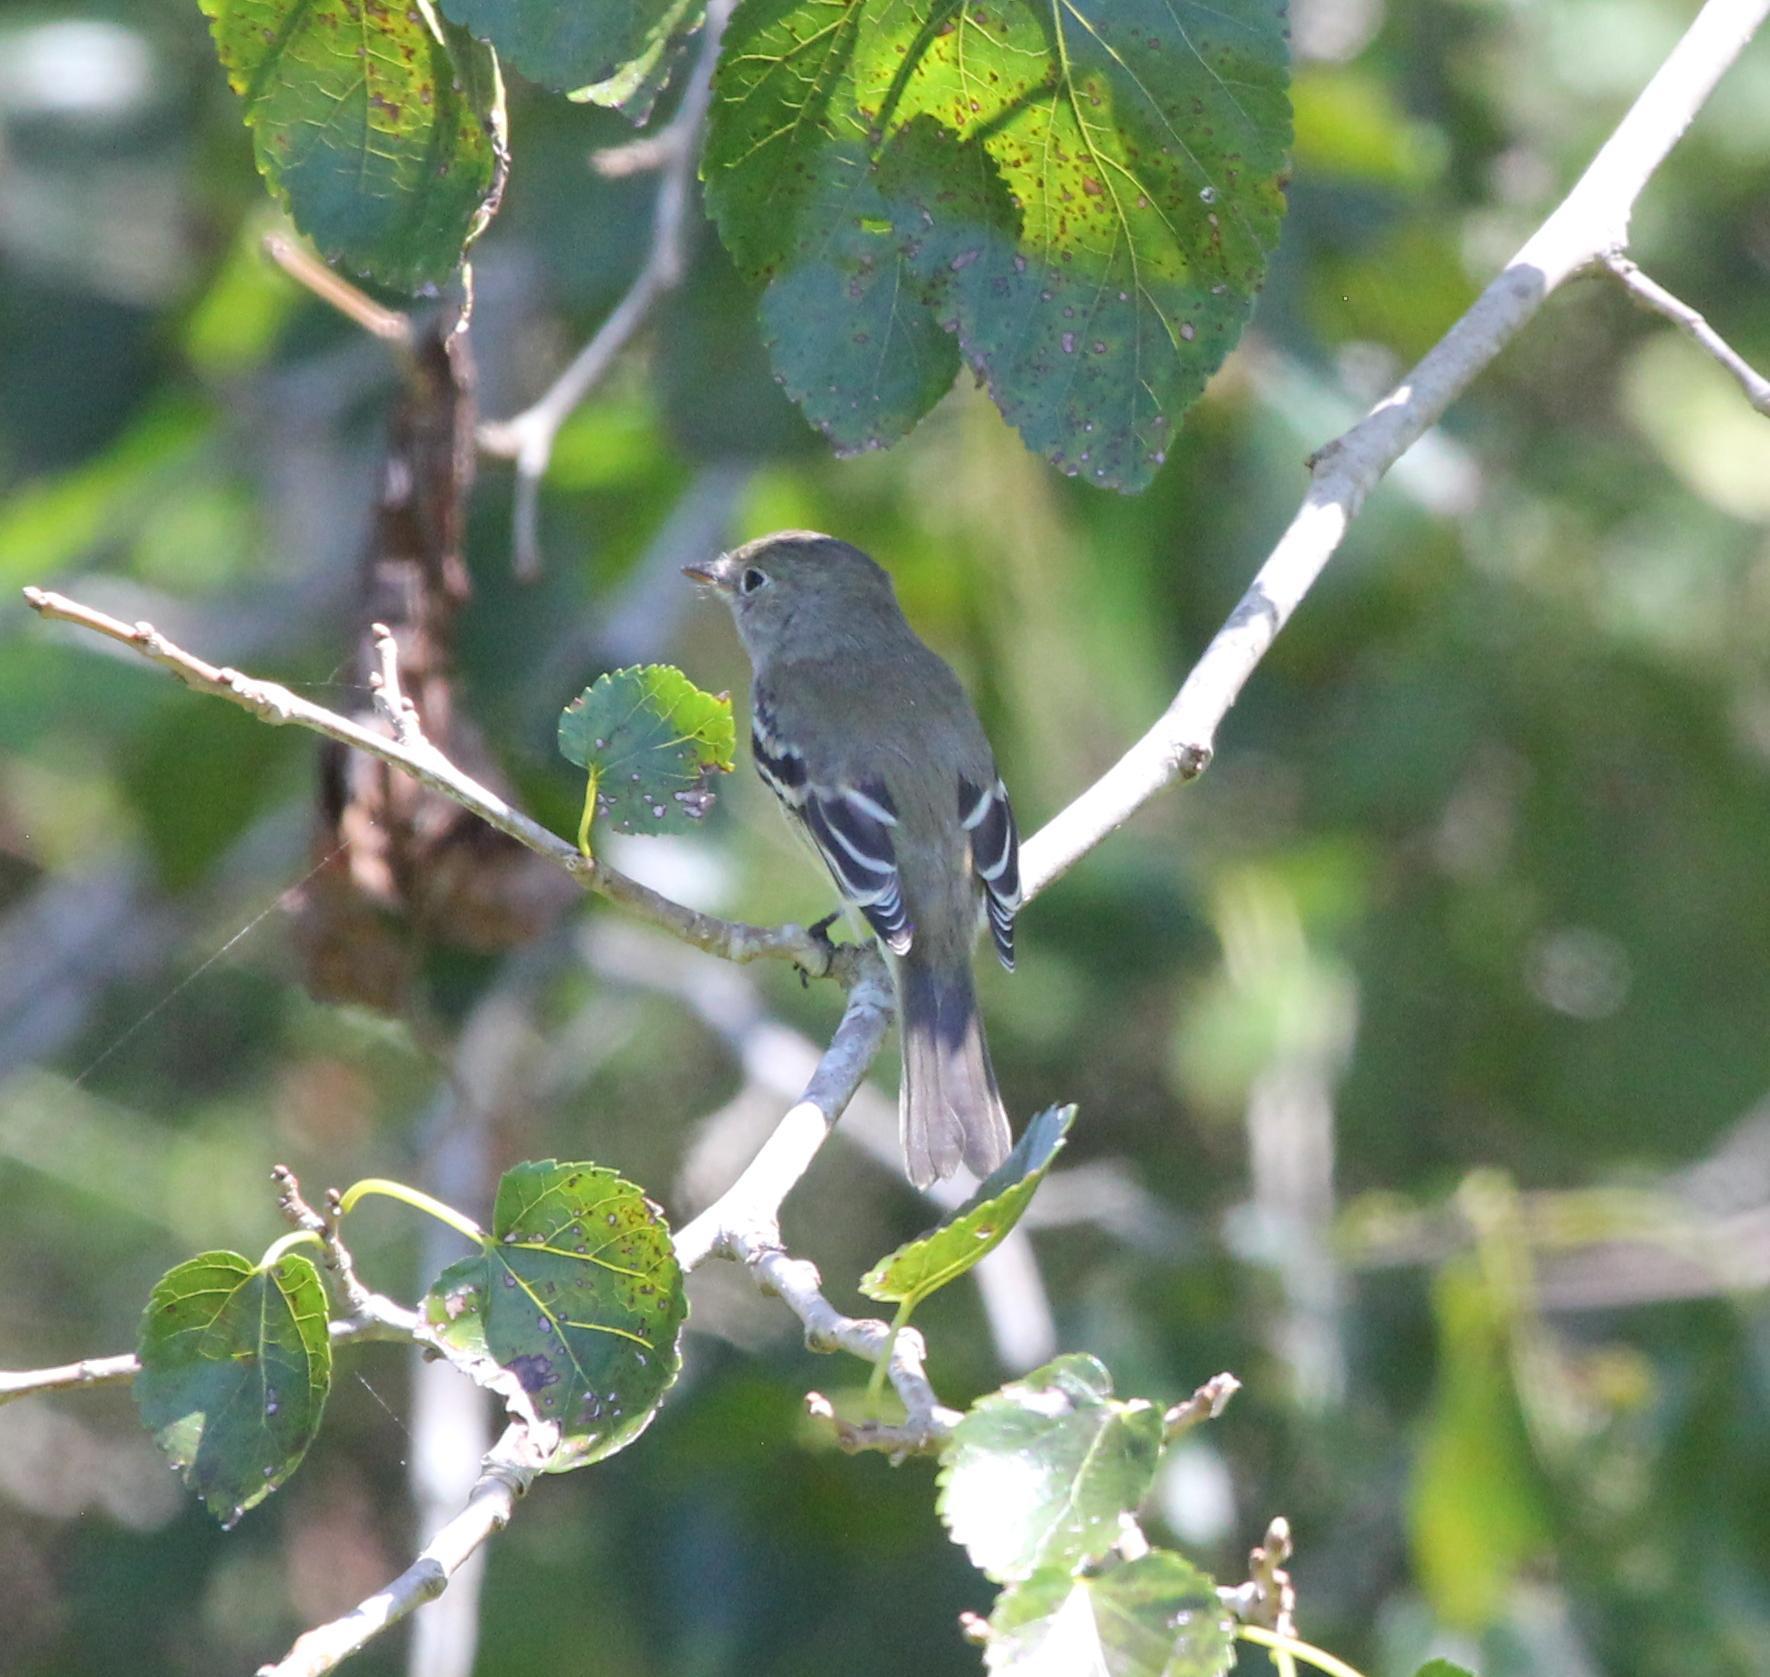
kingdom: Animalia
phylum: Chordata
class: Aves
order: Passeriformes
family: Tyrannidae
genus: Empidonax
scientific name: Empidonax minimus
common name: Least flycatcher
